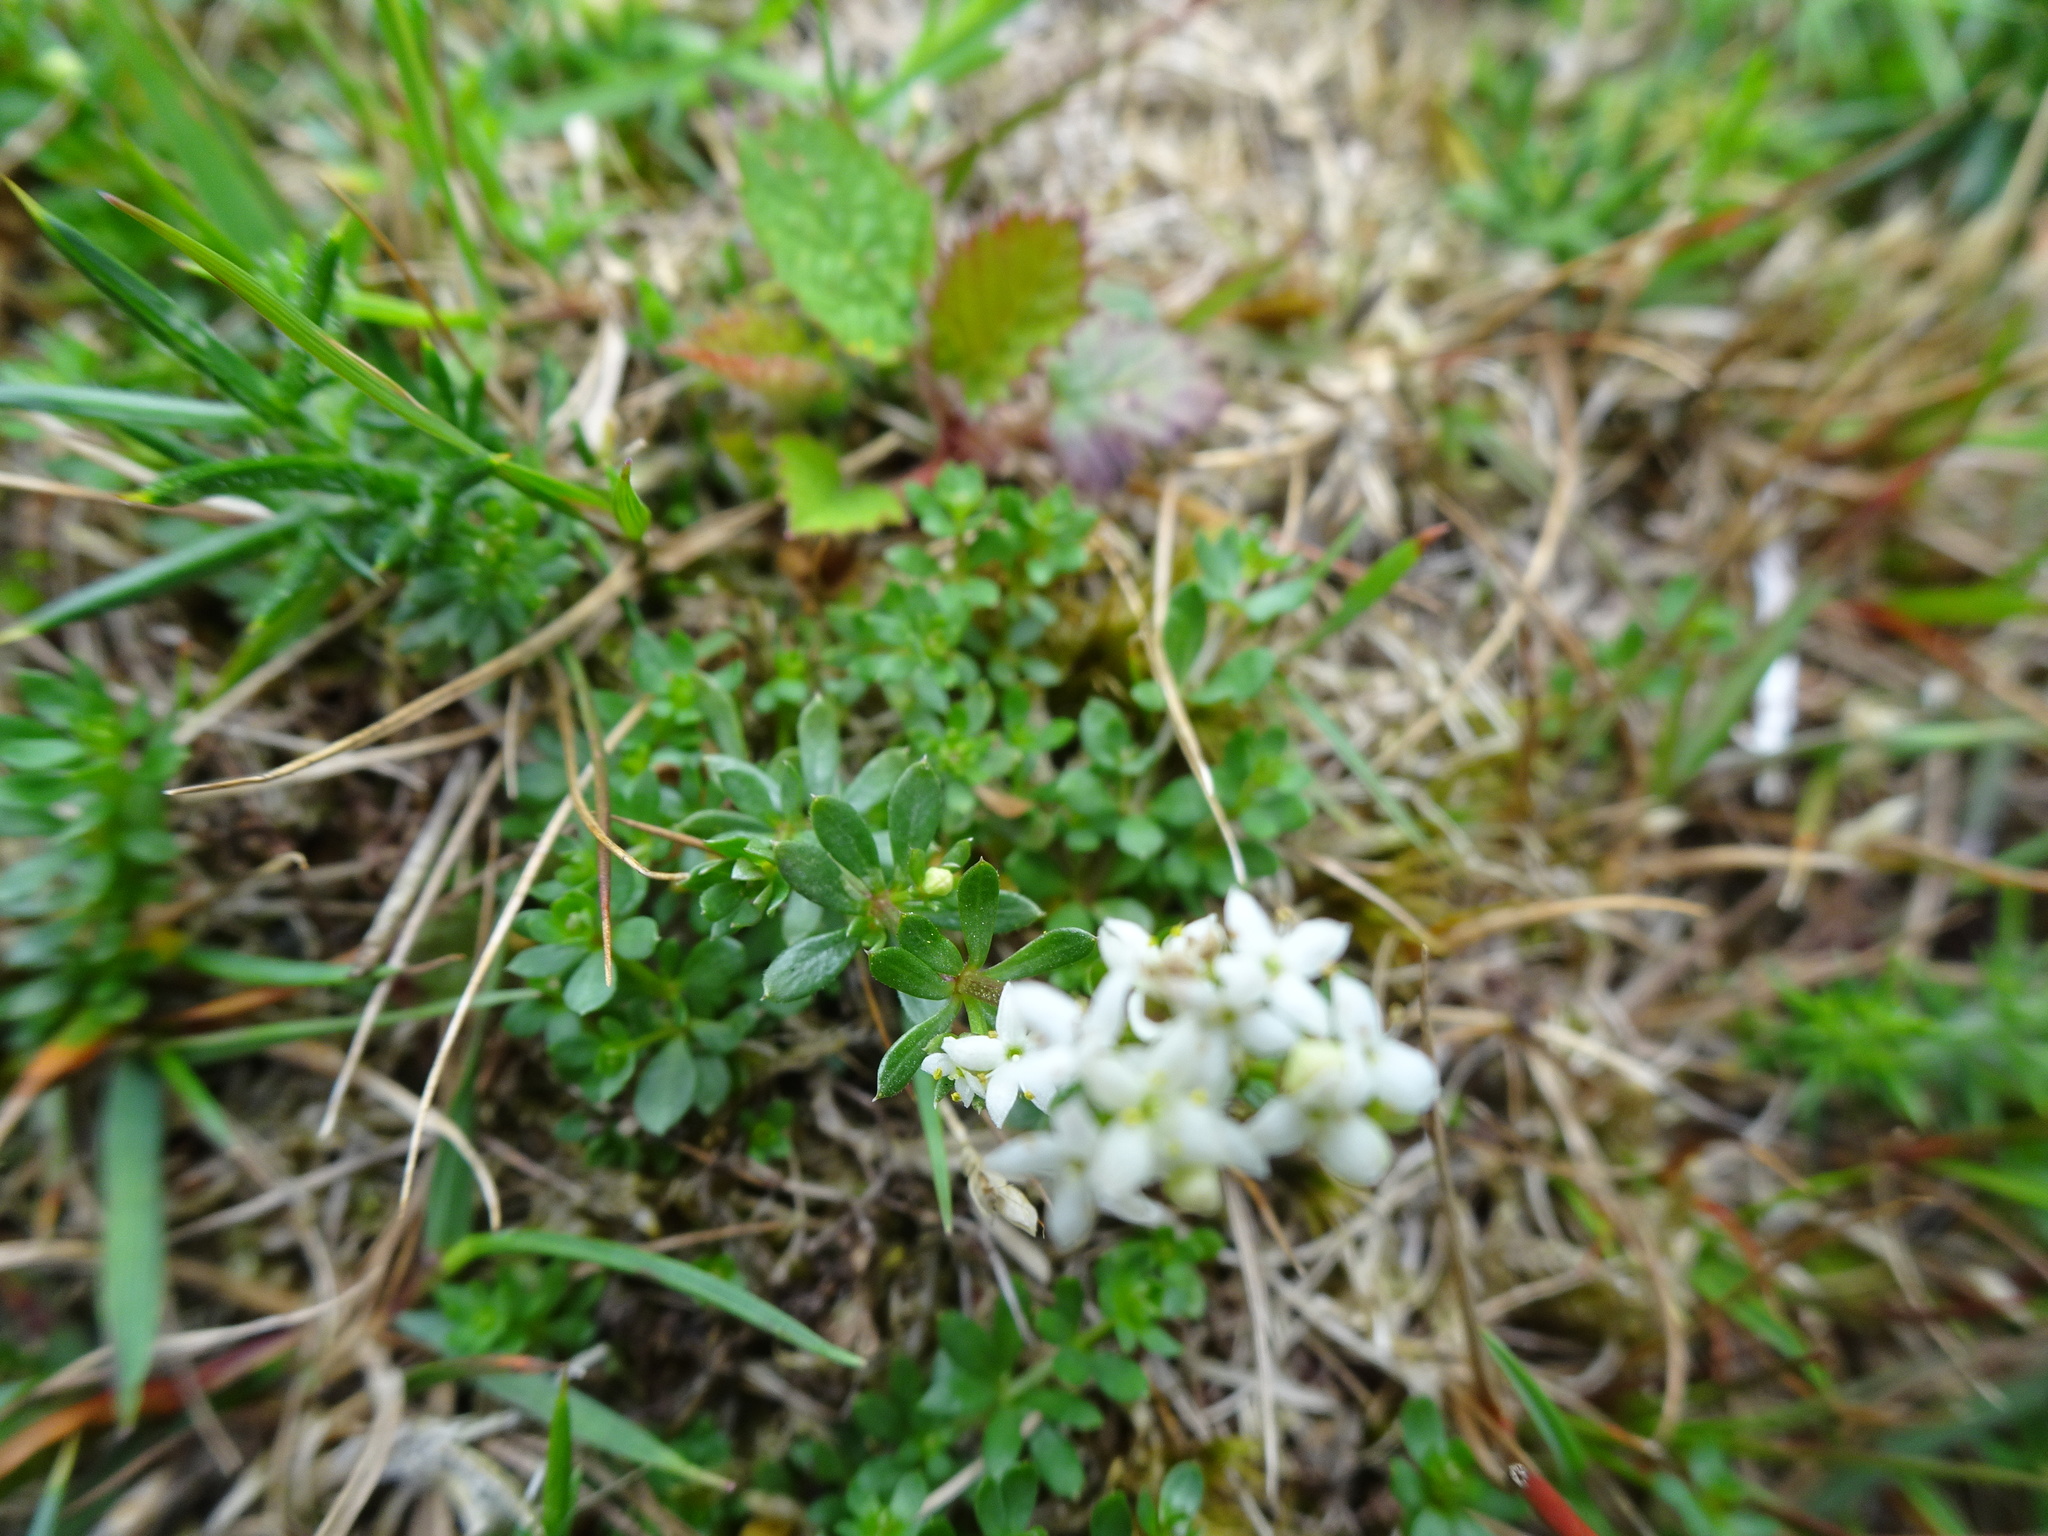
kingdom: Plantae
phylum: Tracheophyta
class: Magnoliopsida
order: Gentianales
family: Rubiaceae
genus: Galium
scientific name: Galium album
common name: White bedstraw
